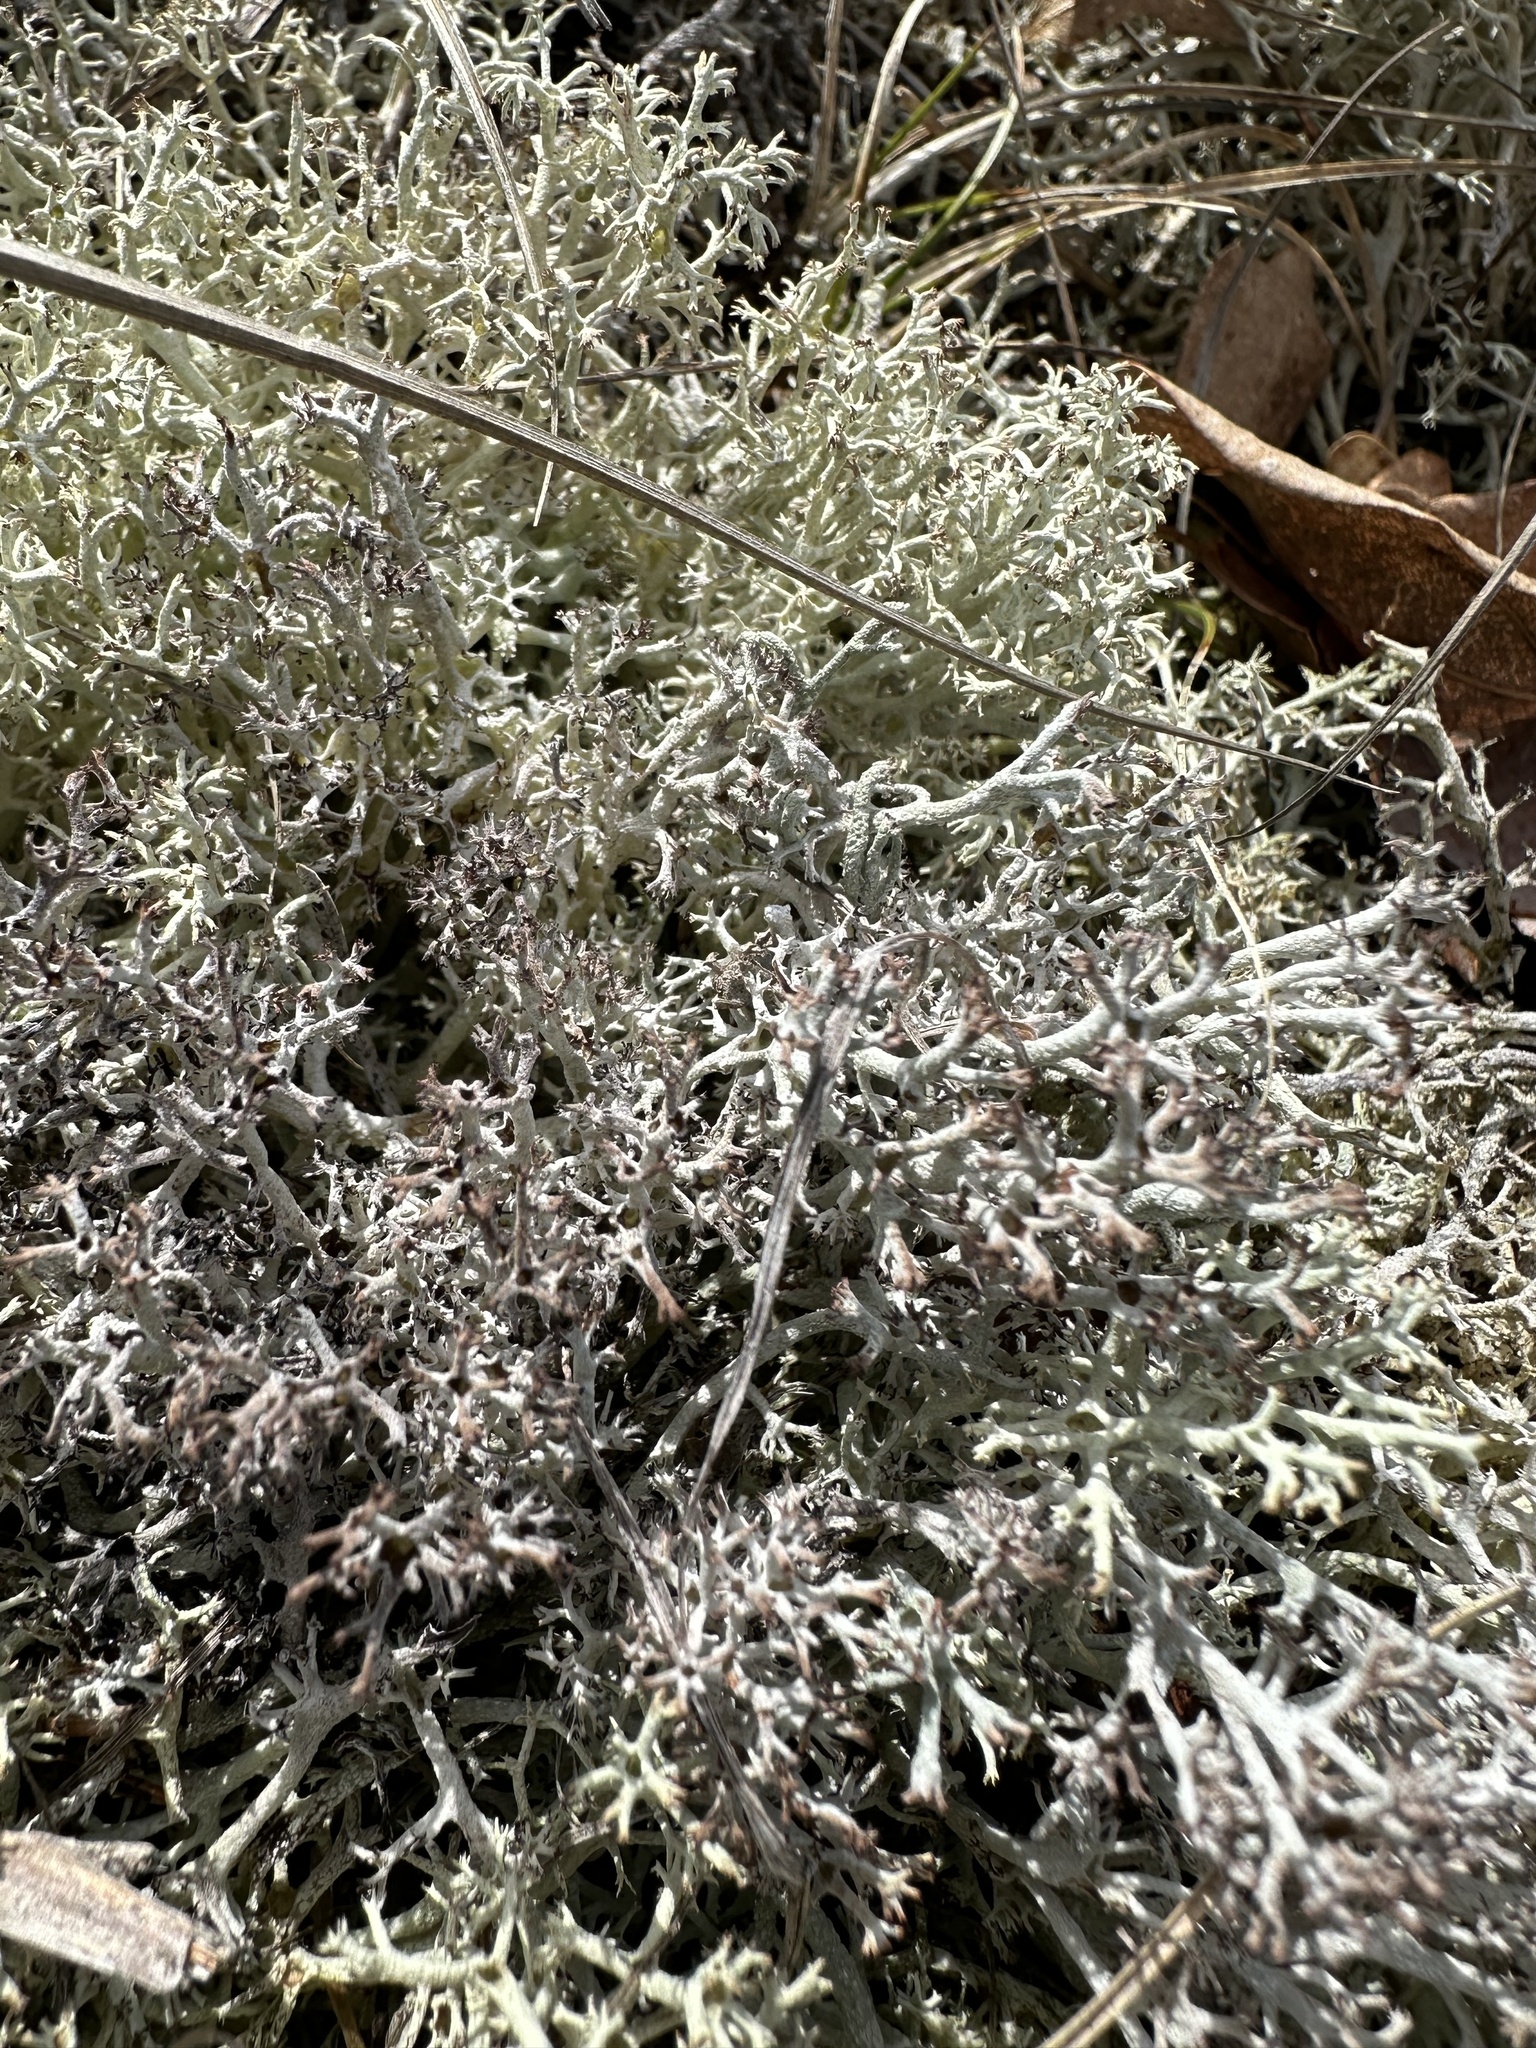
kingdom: Fungi
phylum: Ascomycota
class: Lecanoromycetes
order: Lecanorales
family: Cladoniaceae
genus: Cladonia
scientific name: Cladonia rangiferina
